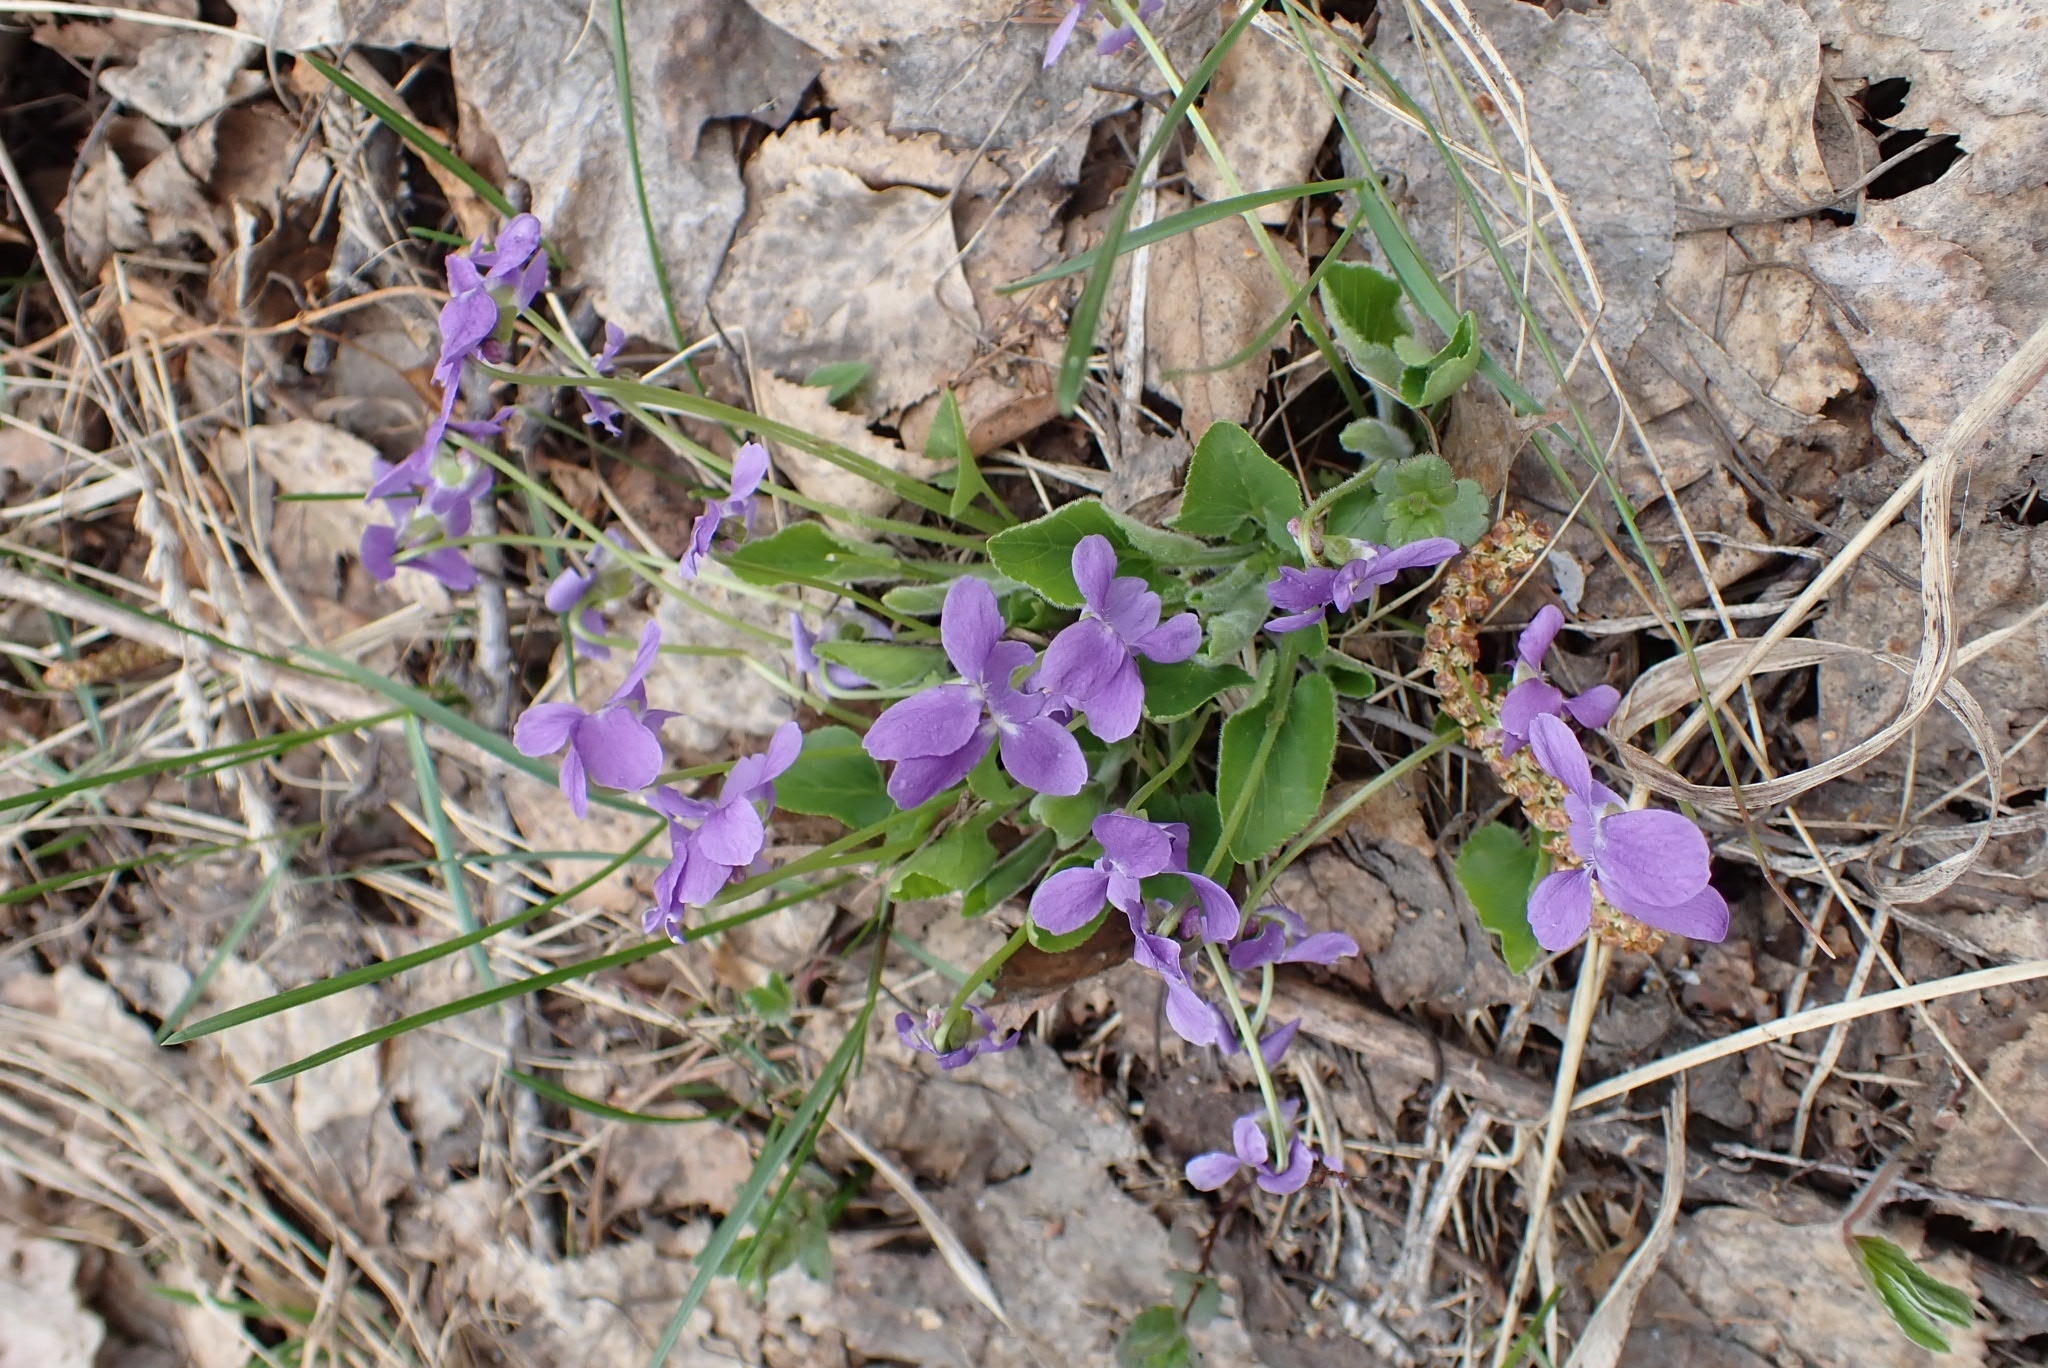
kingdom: Plantae
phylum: Tracheophyta
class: Magnoliopsida
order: Malpighiales
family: Violaceae
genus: Viola
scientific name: Viola hirta
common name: Hairy violet
